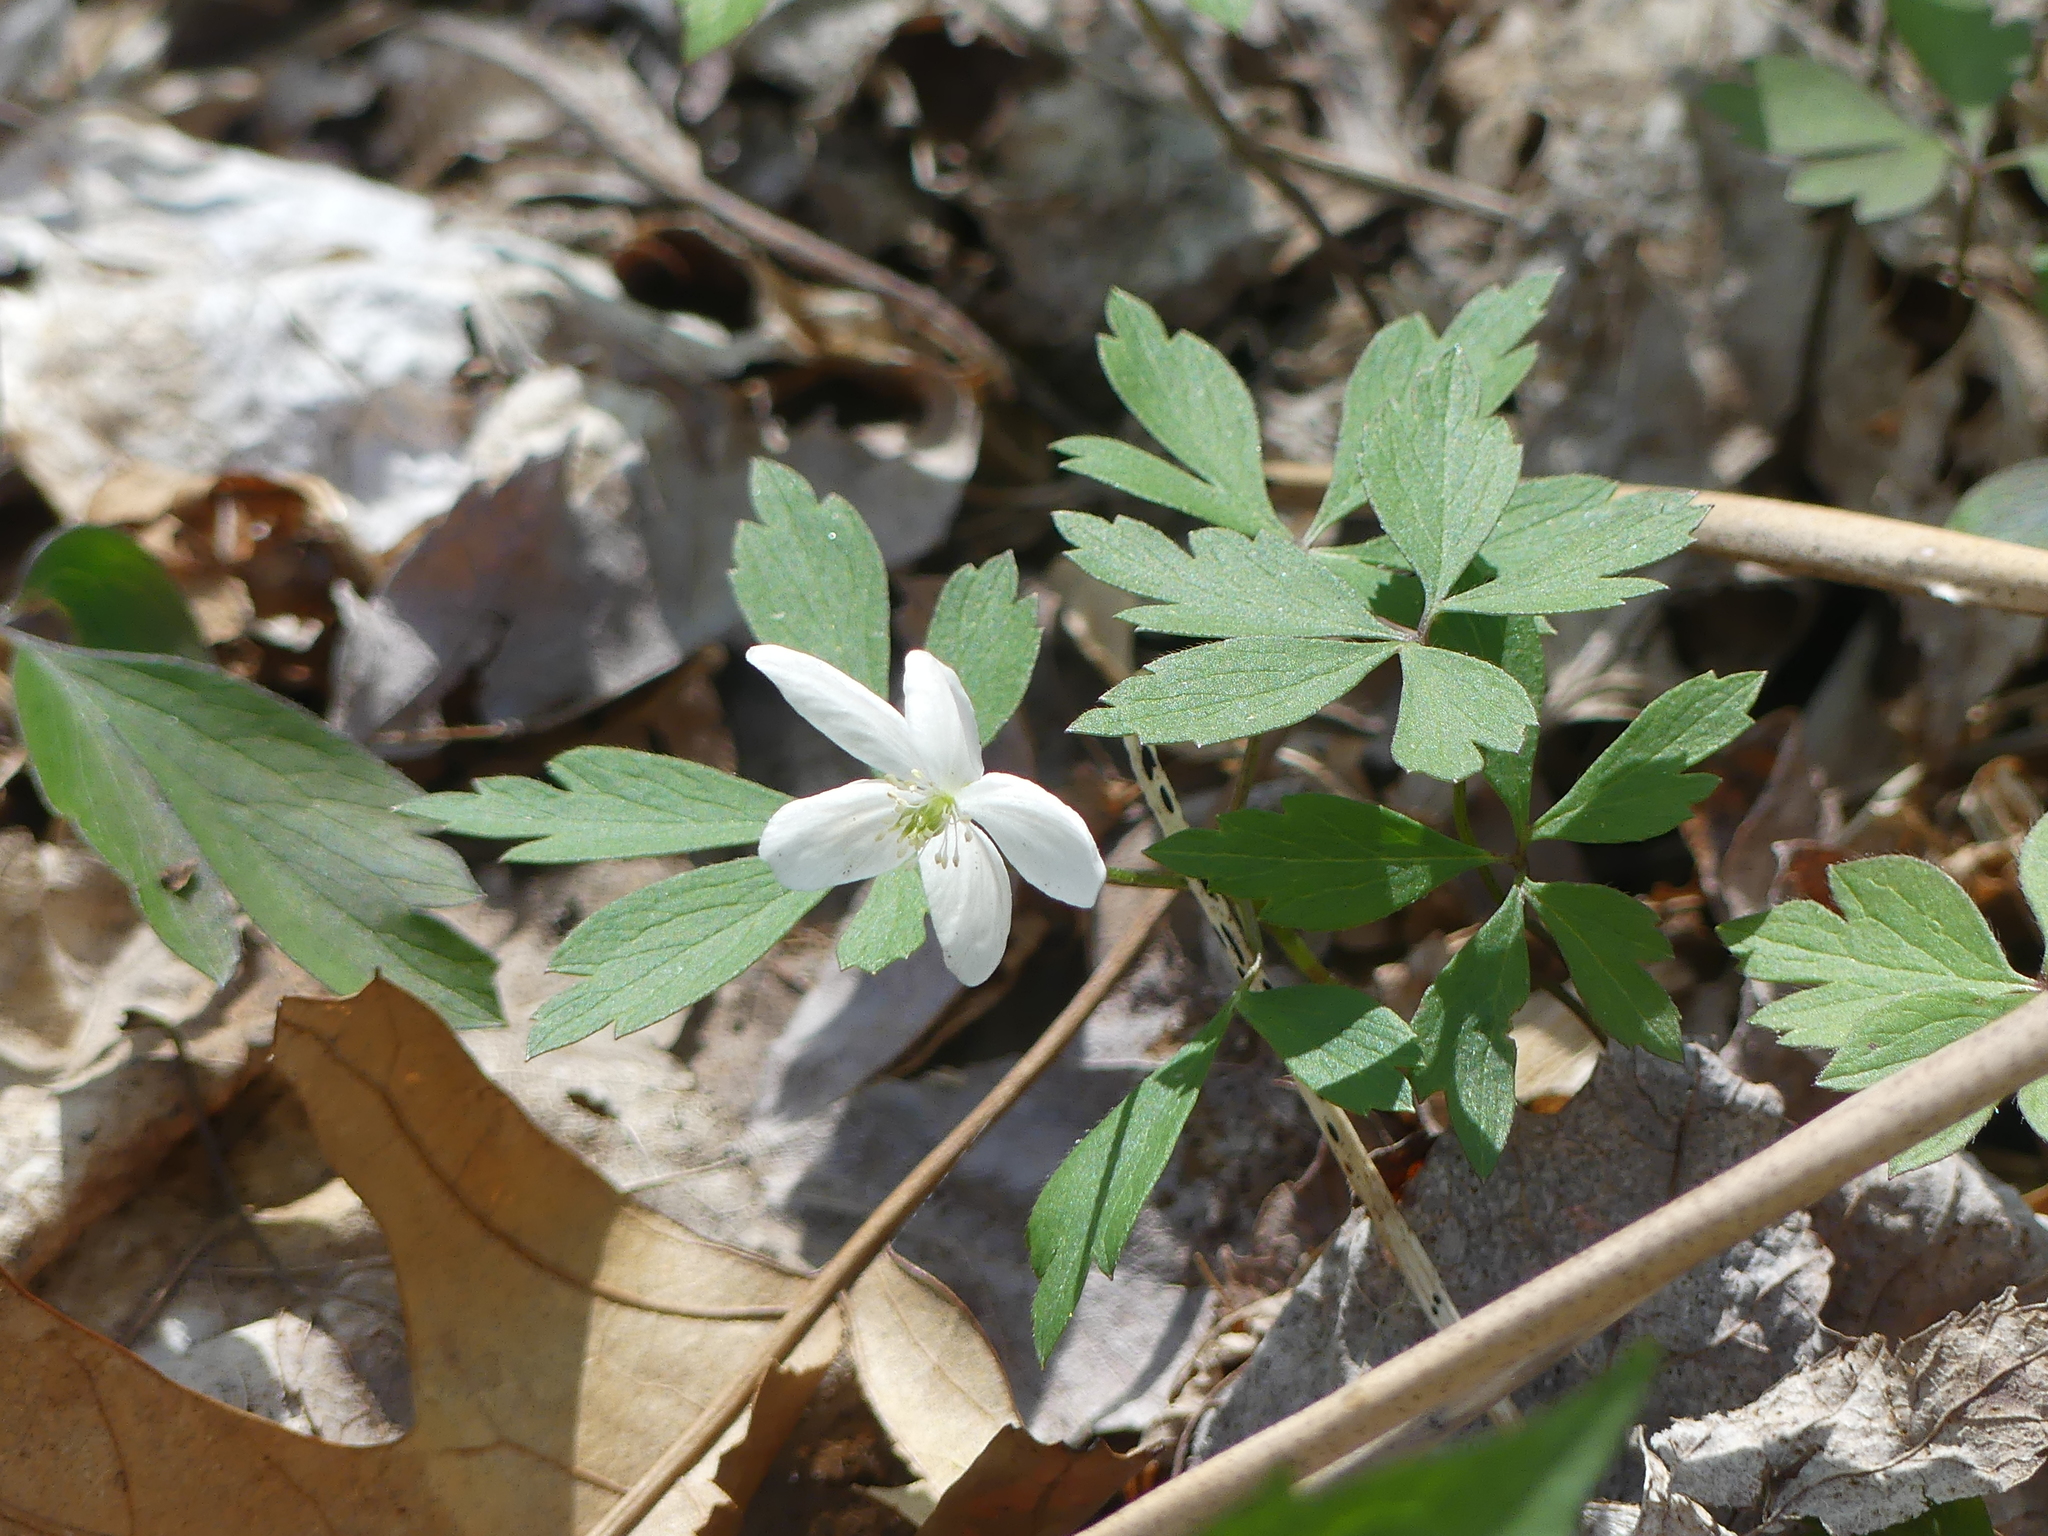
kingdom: Plantae
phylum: Tracheophyta
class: Magnoliopsida
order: Ranunculales
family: Ranunculaceae
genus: Anemone
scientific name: Anemone quinquefolia
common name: Wood anemone
